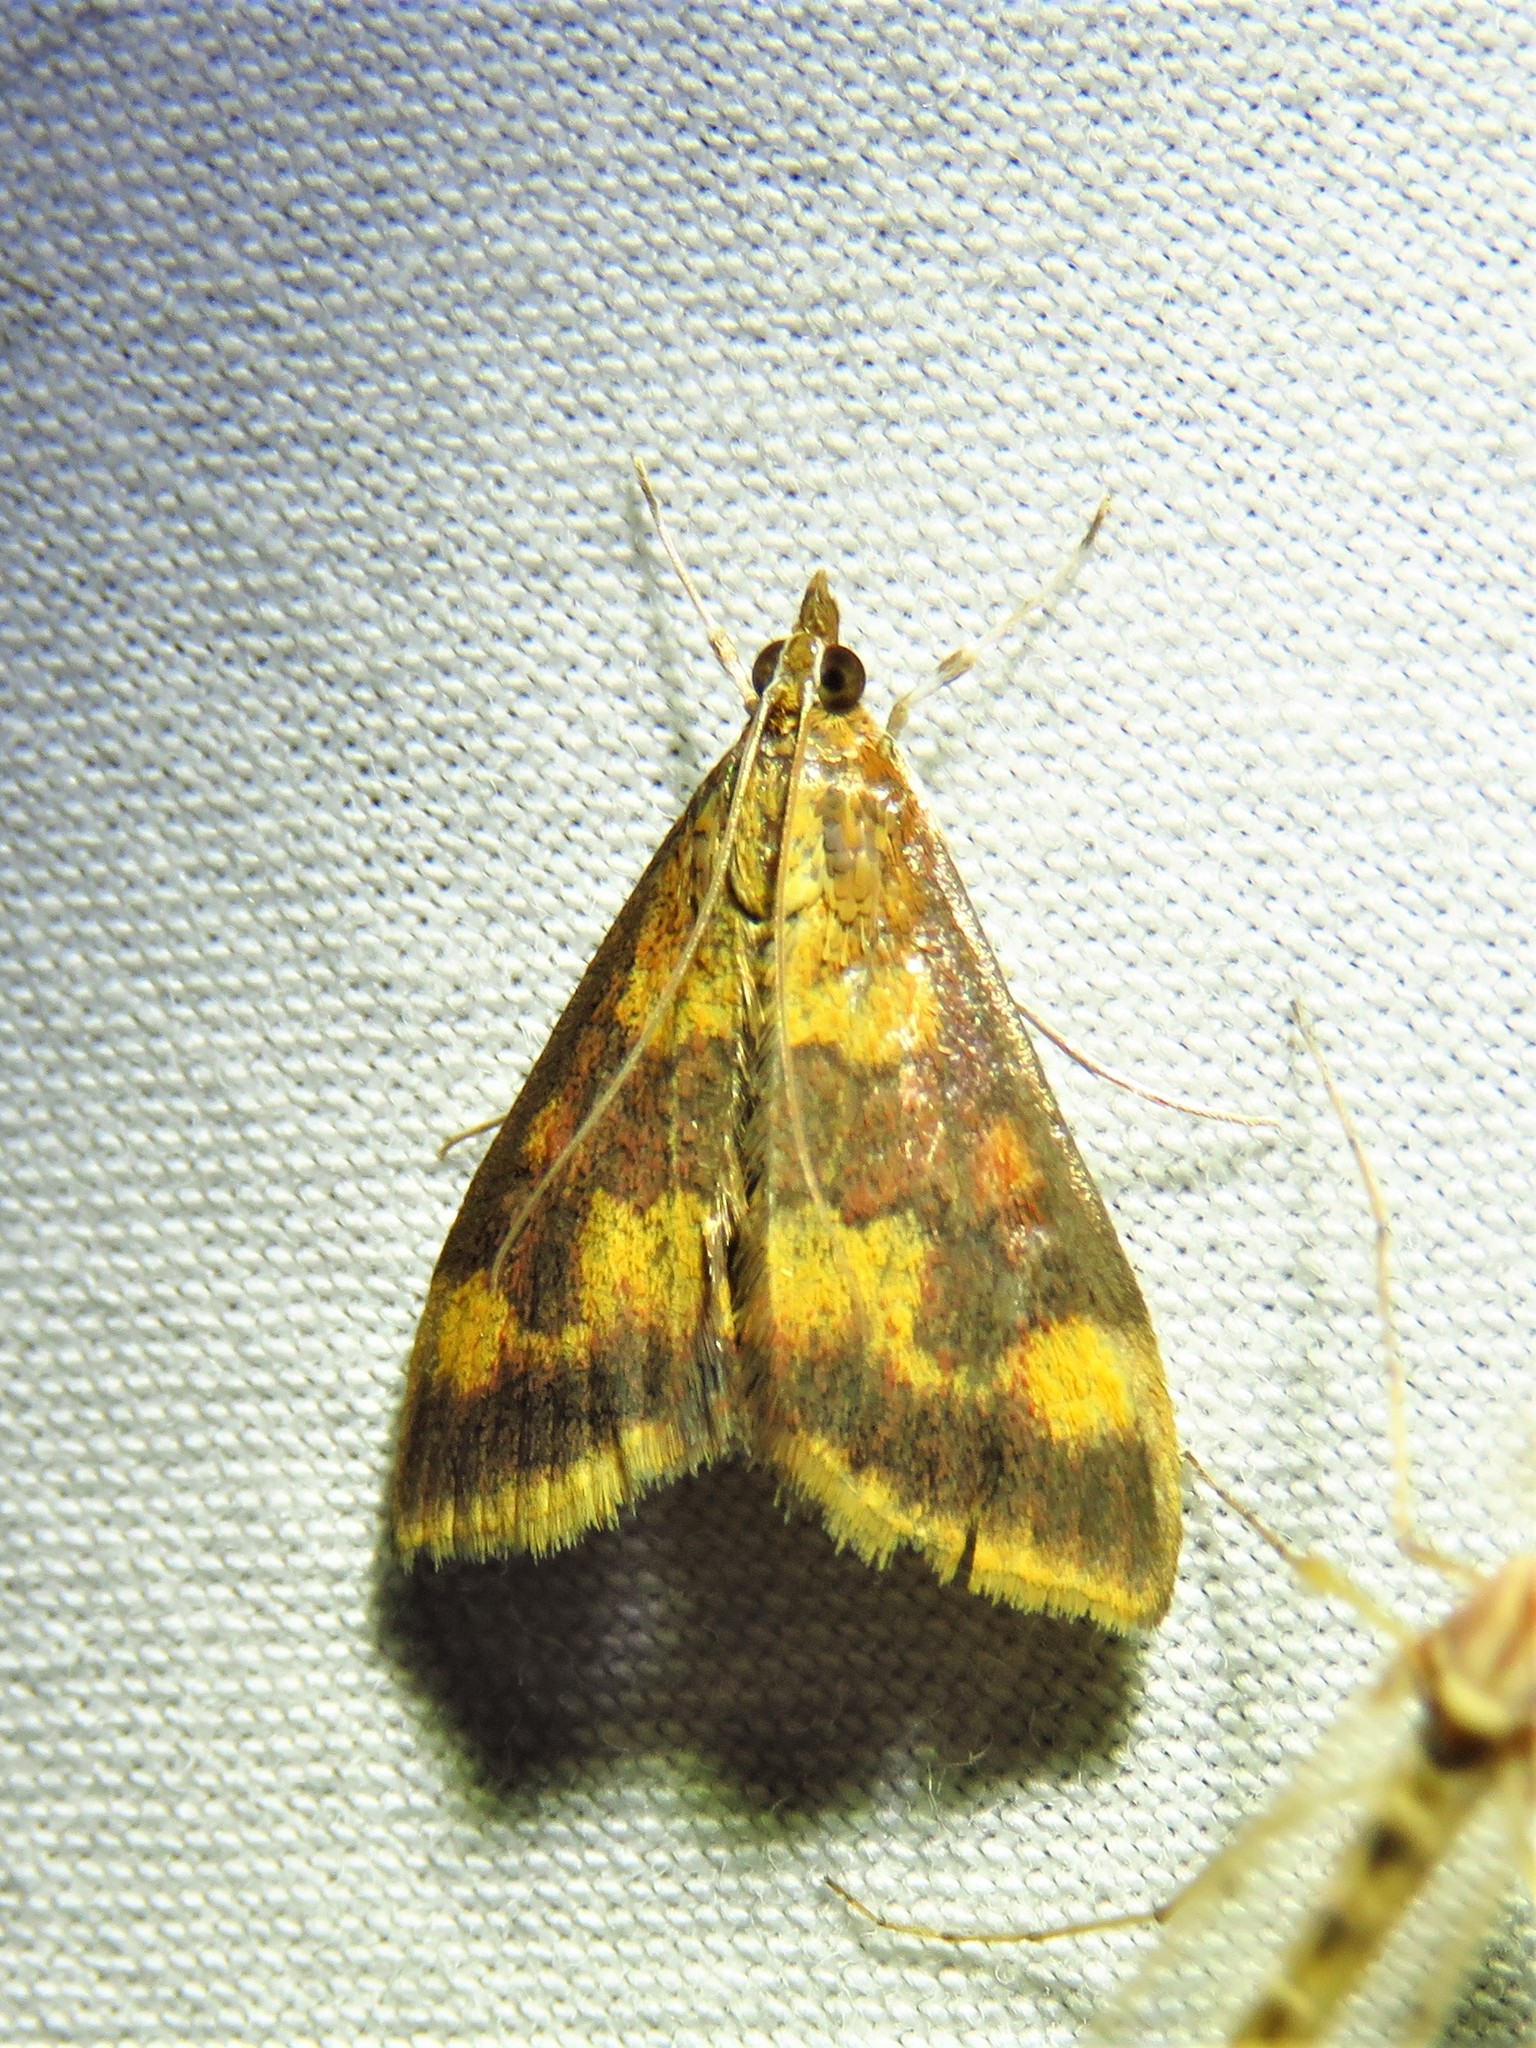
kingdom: Animalia
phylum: Arthropoda
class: Insecta
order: Lepidoptera
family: Crambidae
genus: Pyrausta
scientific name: Pyrausta onythesalis
